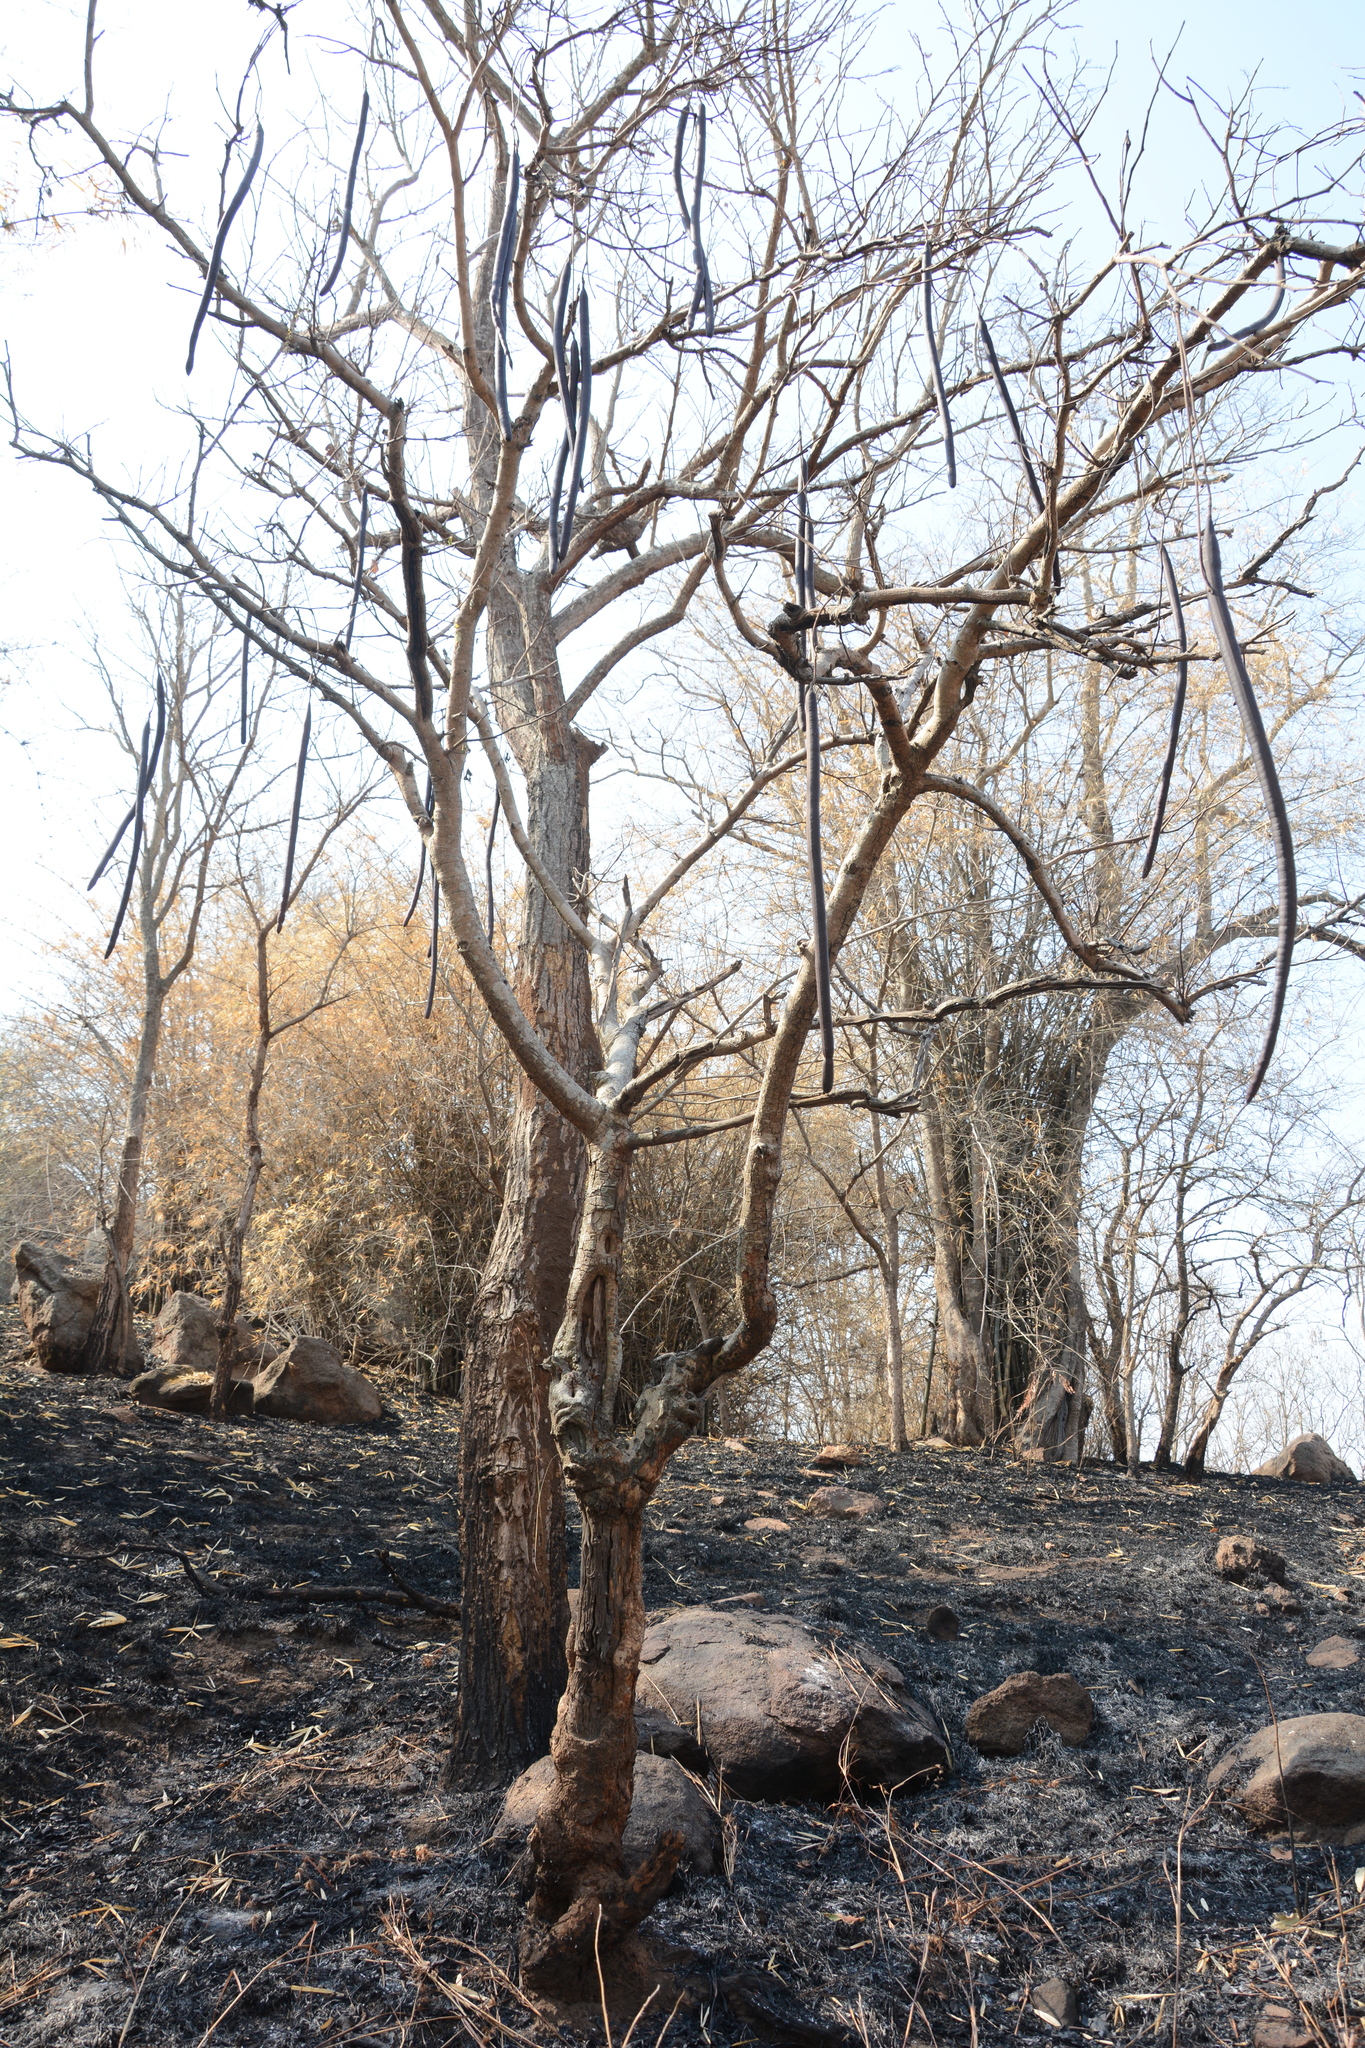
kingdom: Plantae
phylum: Tracheophyta
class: Magnoliopsida
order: Fabales
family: Fabaceae
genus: Cassia
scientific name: Cassia fistula
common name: Golden shower
